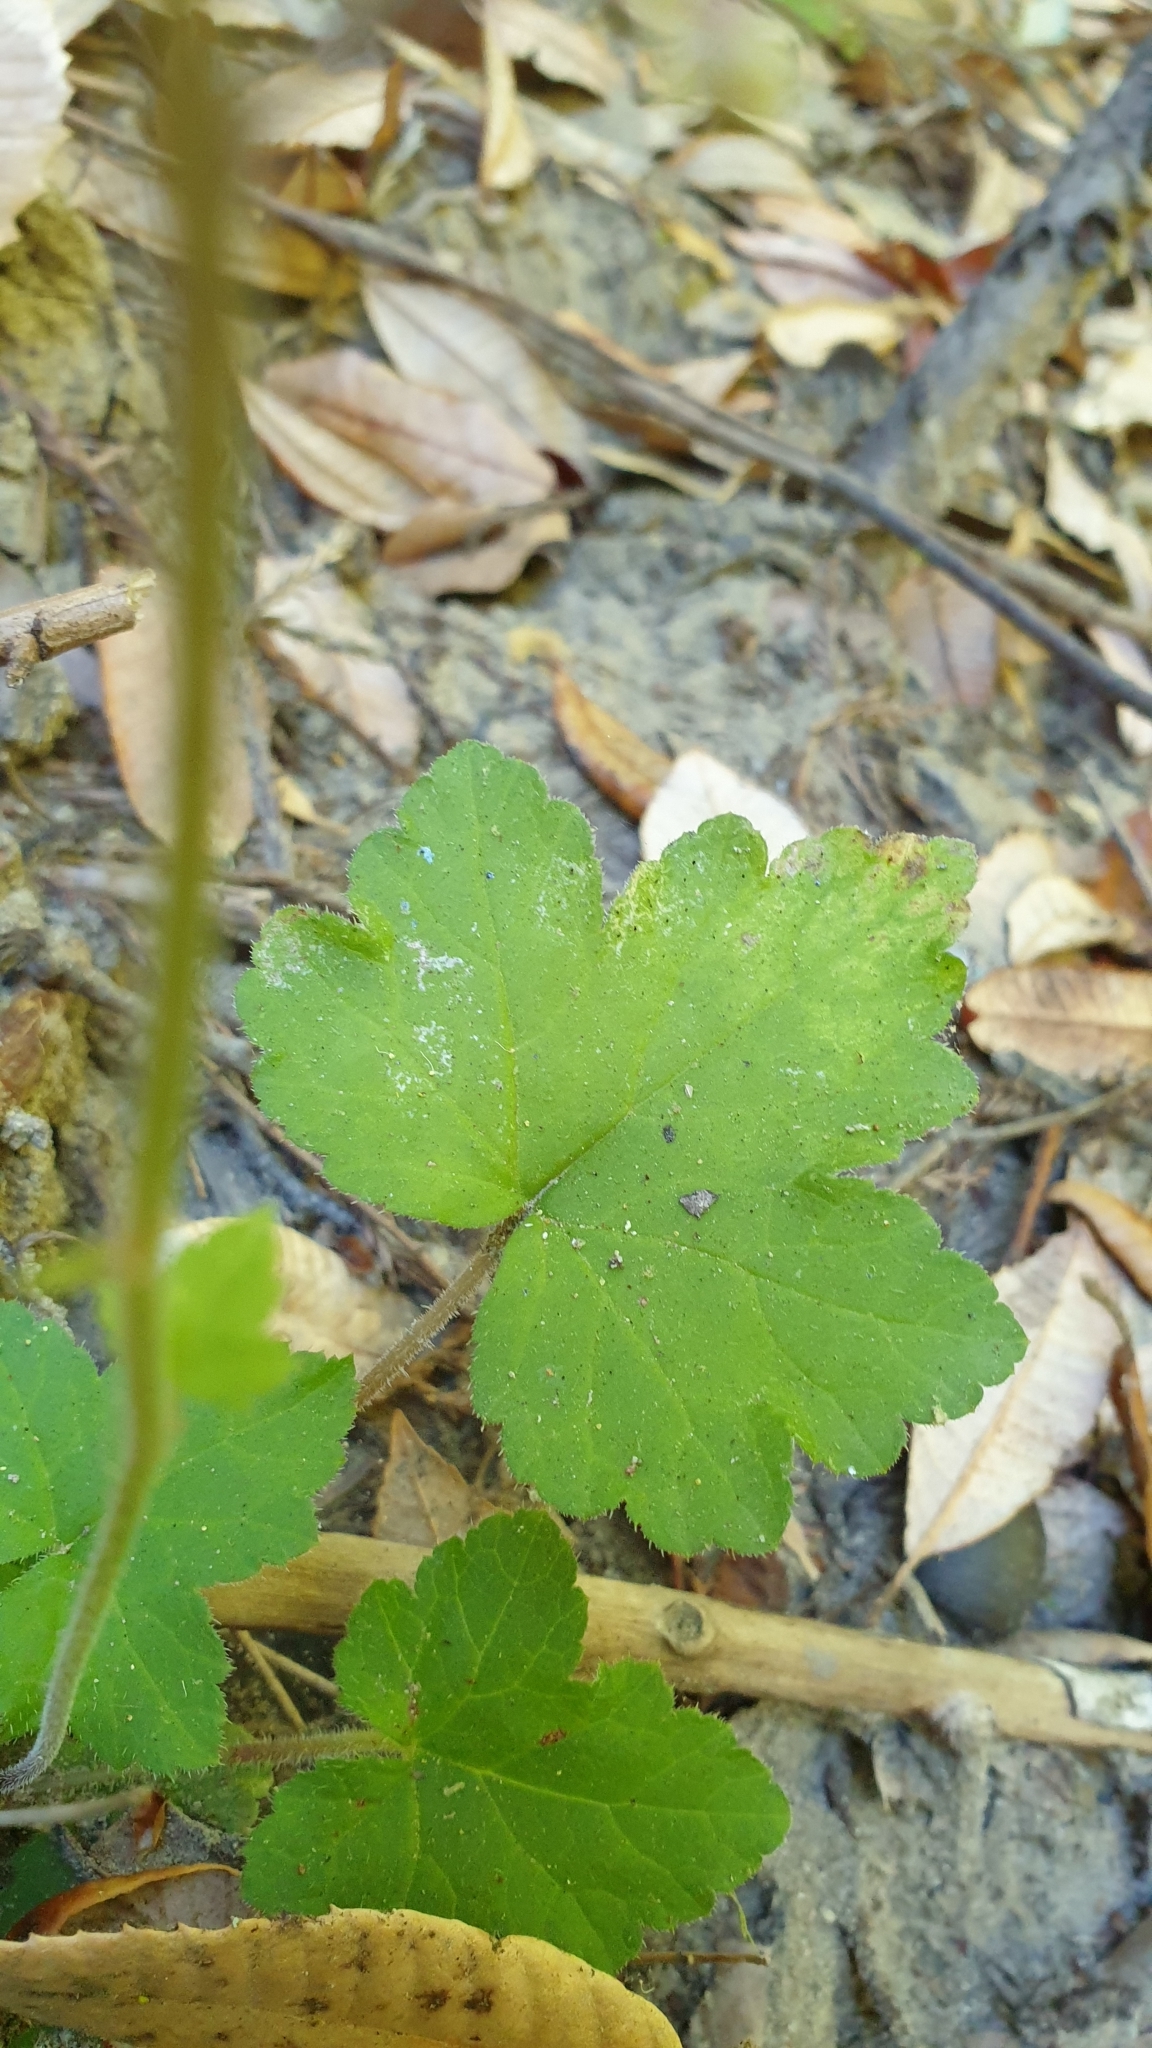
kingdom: Plantae
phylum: Tracheophyta
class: Magnoliopsida
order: Saxifragales
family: Saxifragaceae
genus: Tiarella
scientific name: Tiarella trifoliata
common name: Sugar-scoop
